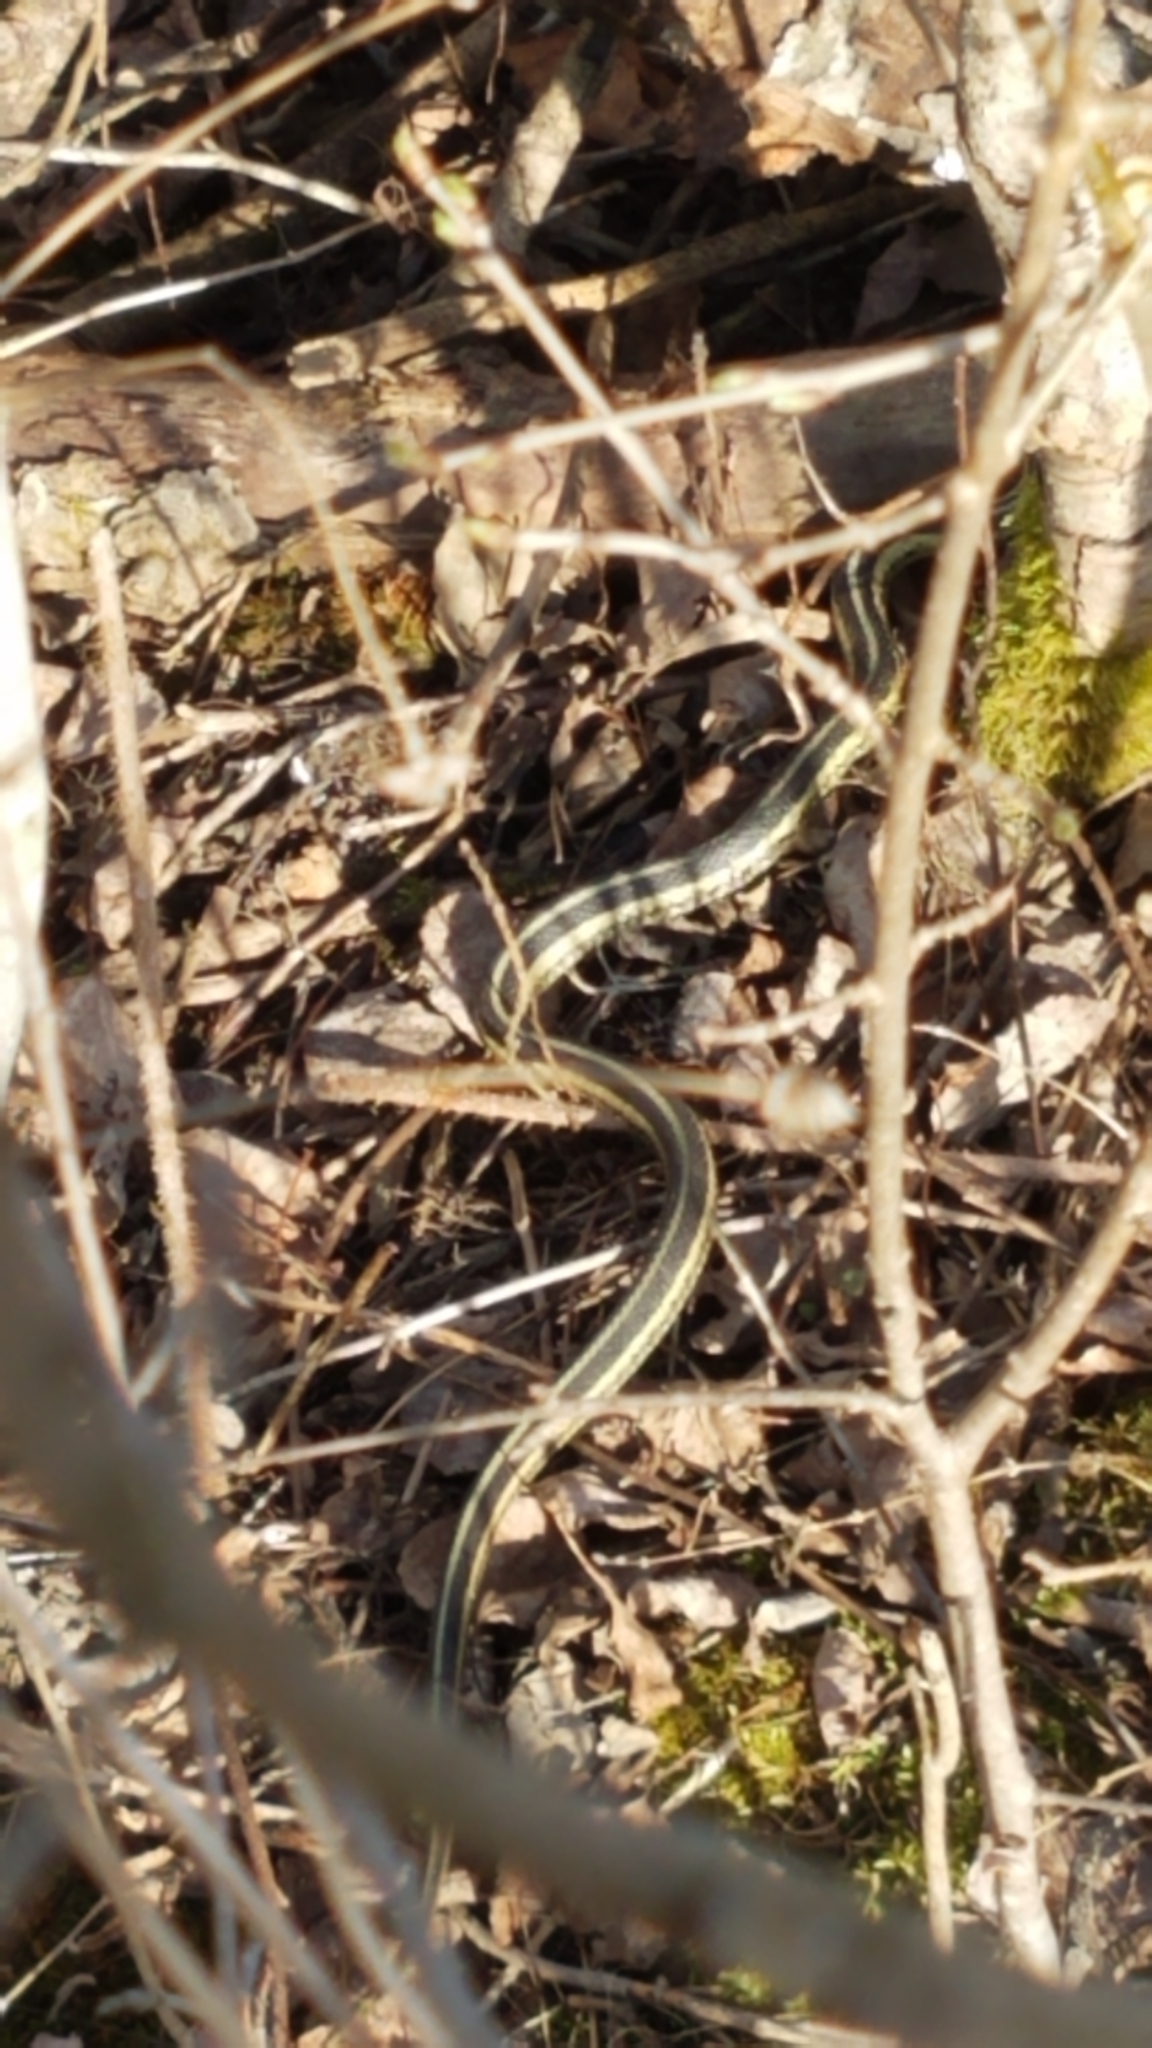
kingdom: Animalia
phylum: Chordata
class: Squamata
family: Colubridae
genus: Thamnophis
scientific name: Thamnophis sirtalis
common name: Common garter snake
